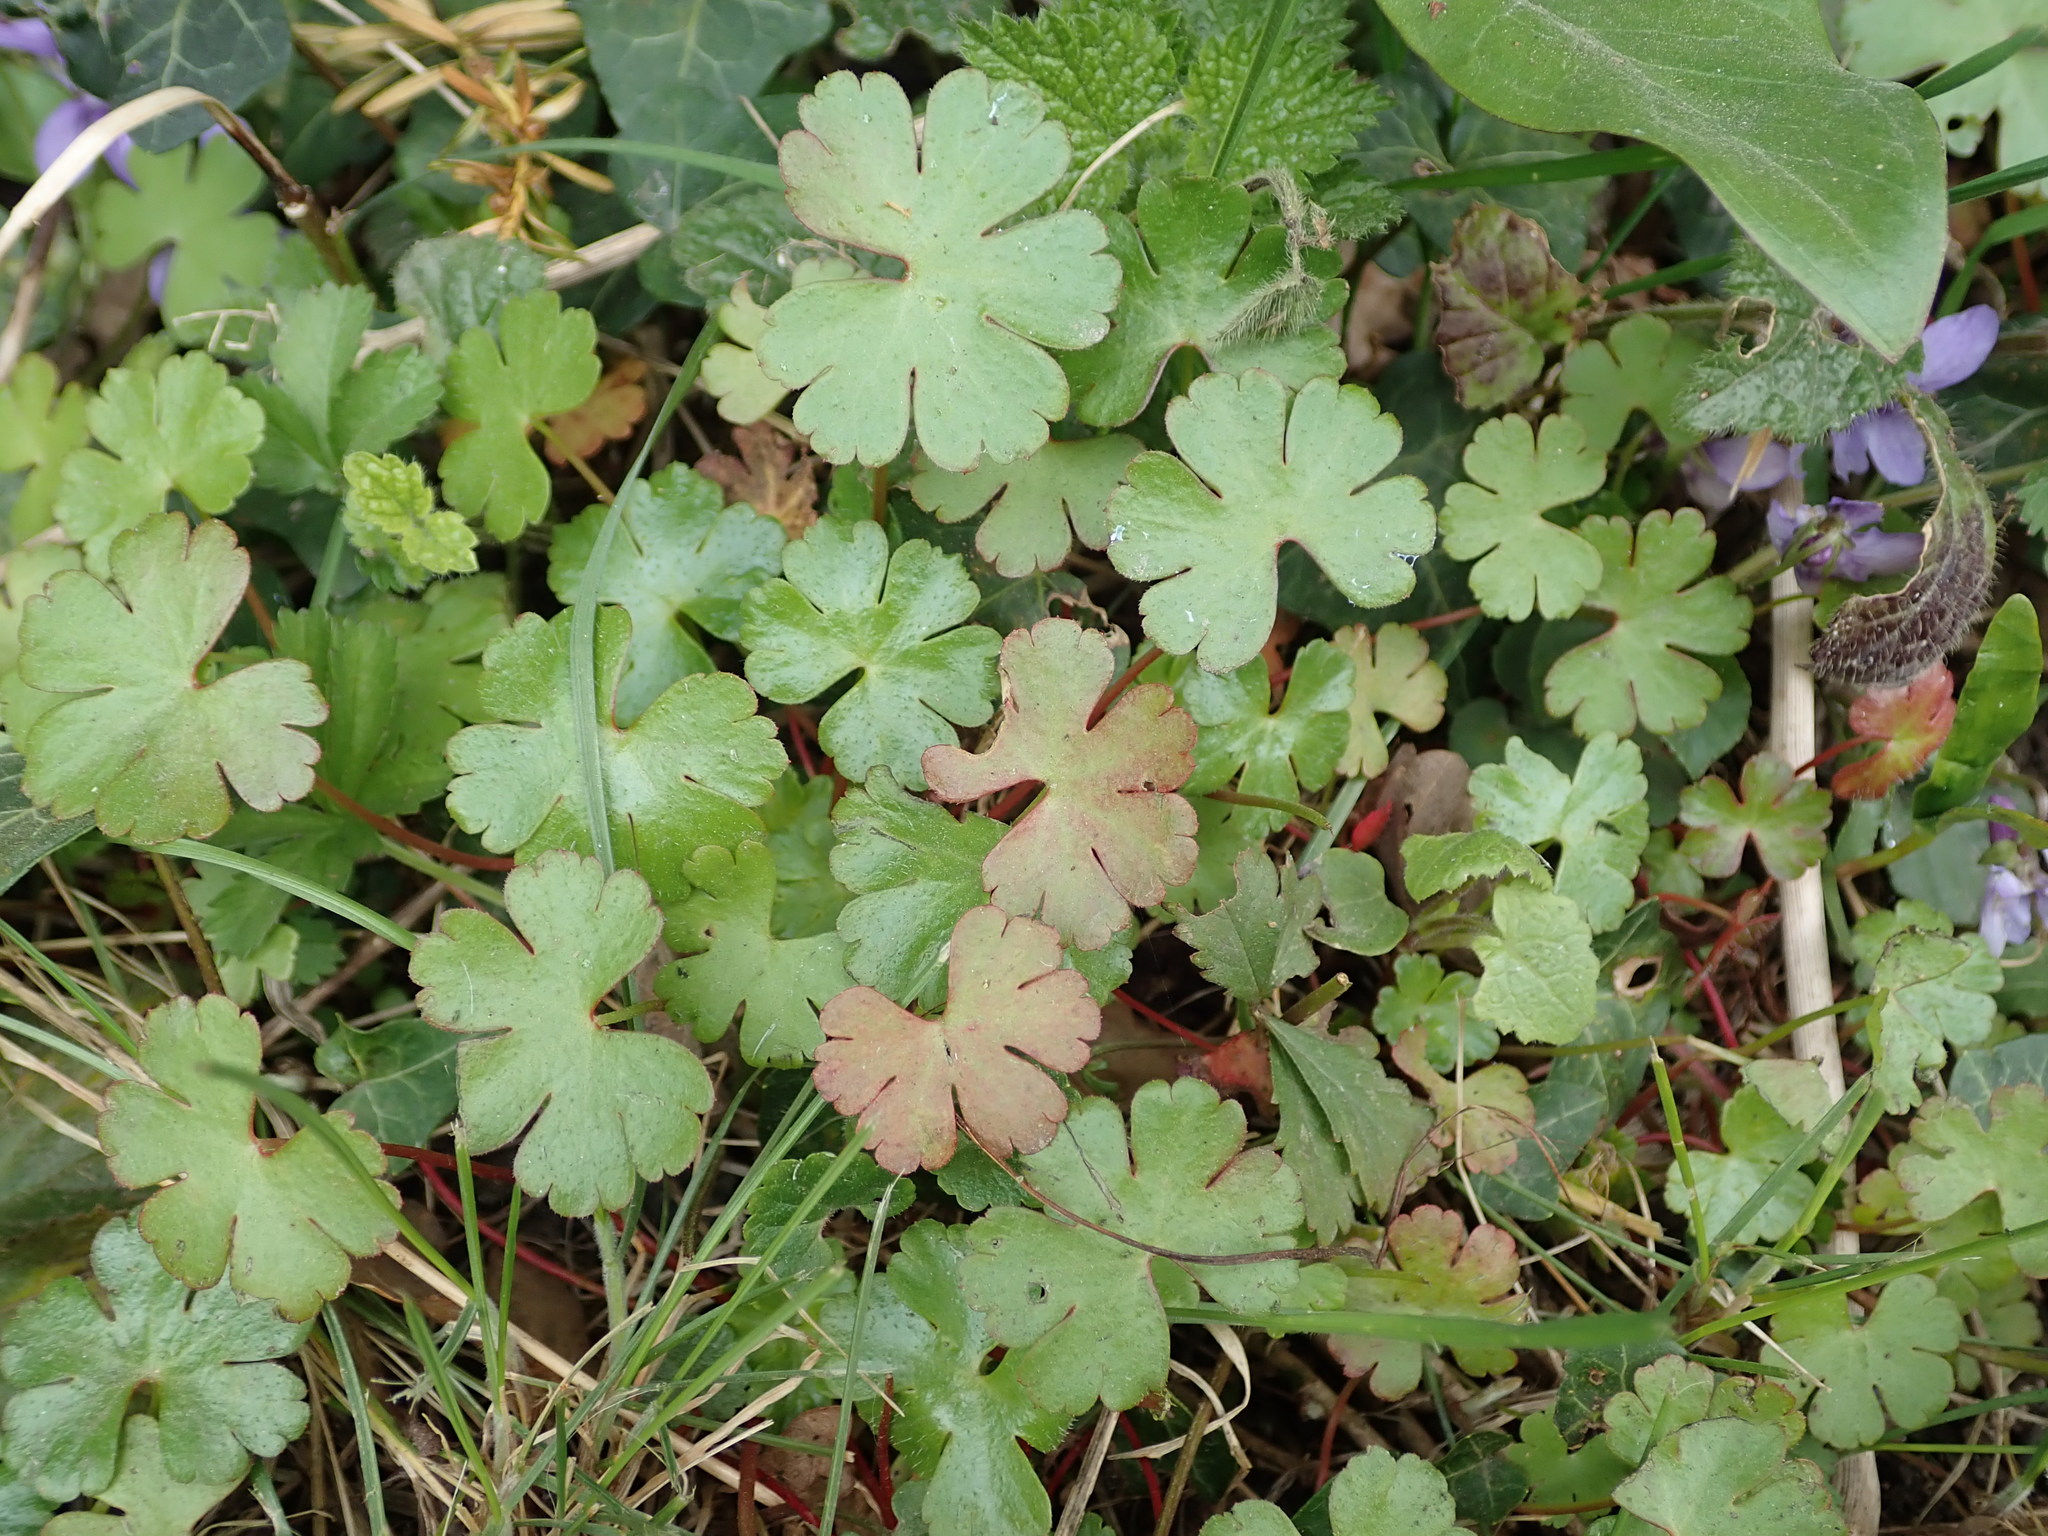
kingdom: Plantae
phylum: Tracheophyta
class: Magnoliopsida
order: Geraniales
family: Geraniaceae
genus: Geranium
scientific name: Geranium lucidum
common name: Shining crane's-bill
